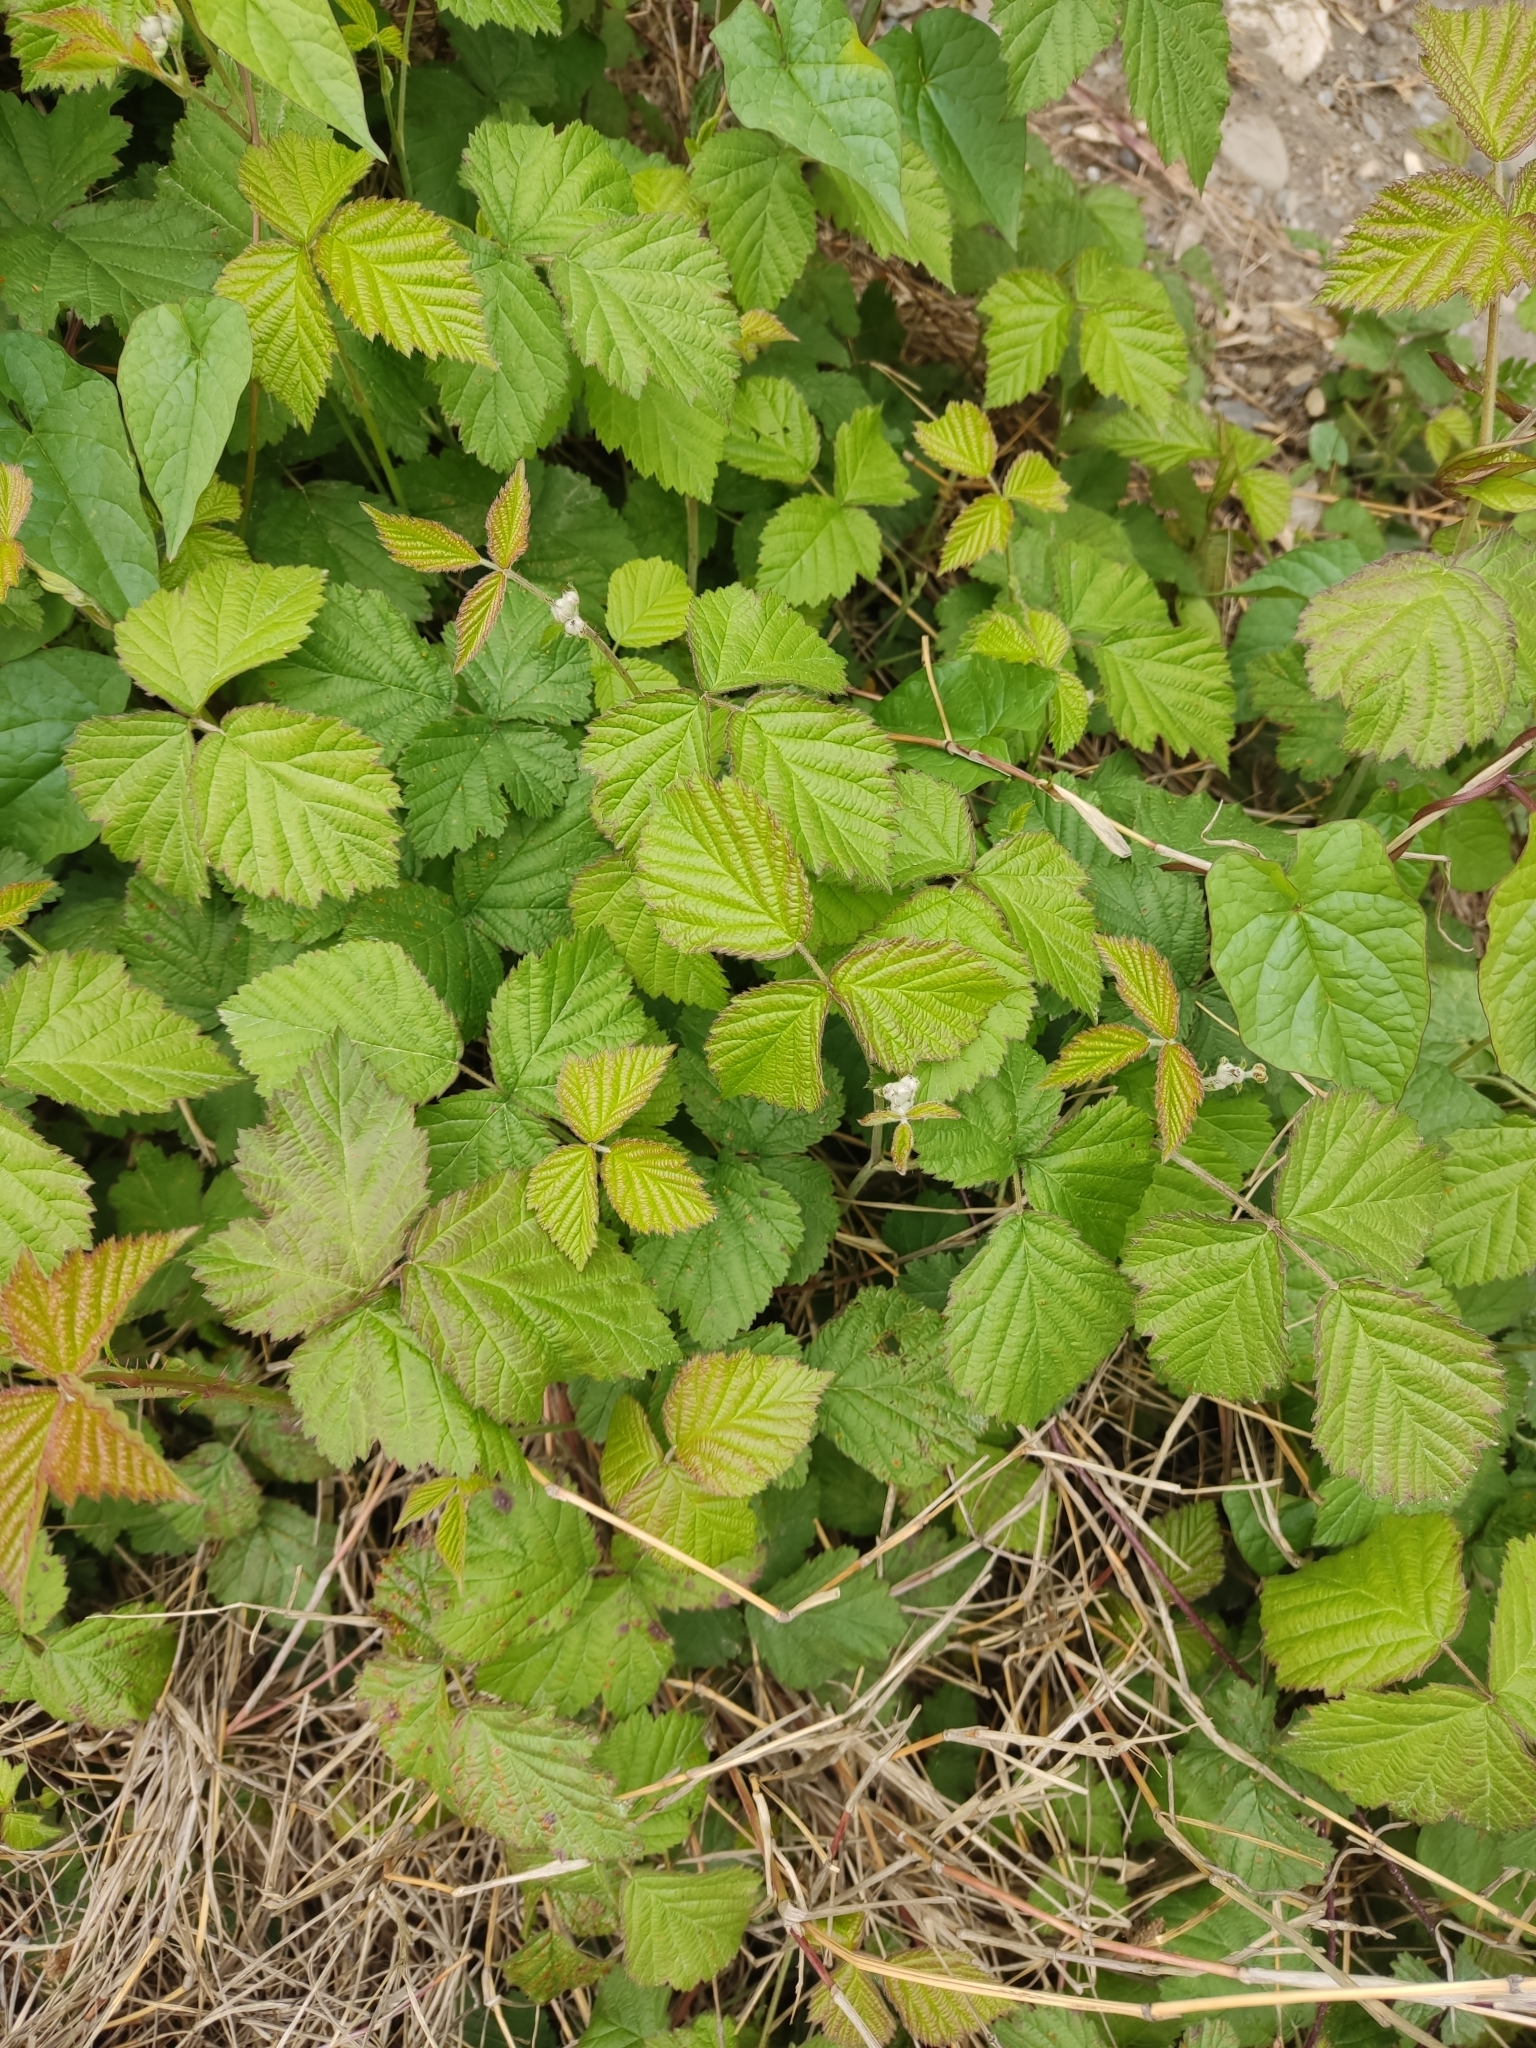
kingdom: Plantae
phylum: Tracheophyta
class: Magnoliopsida
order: Rosales
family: Rosaceae
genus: Rubus
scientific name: Rubus caesius
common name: Dewberry
